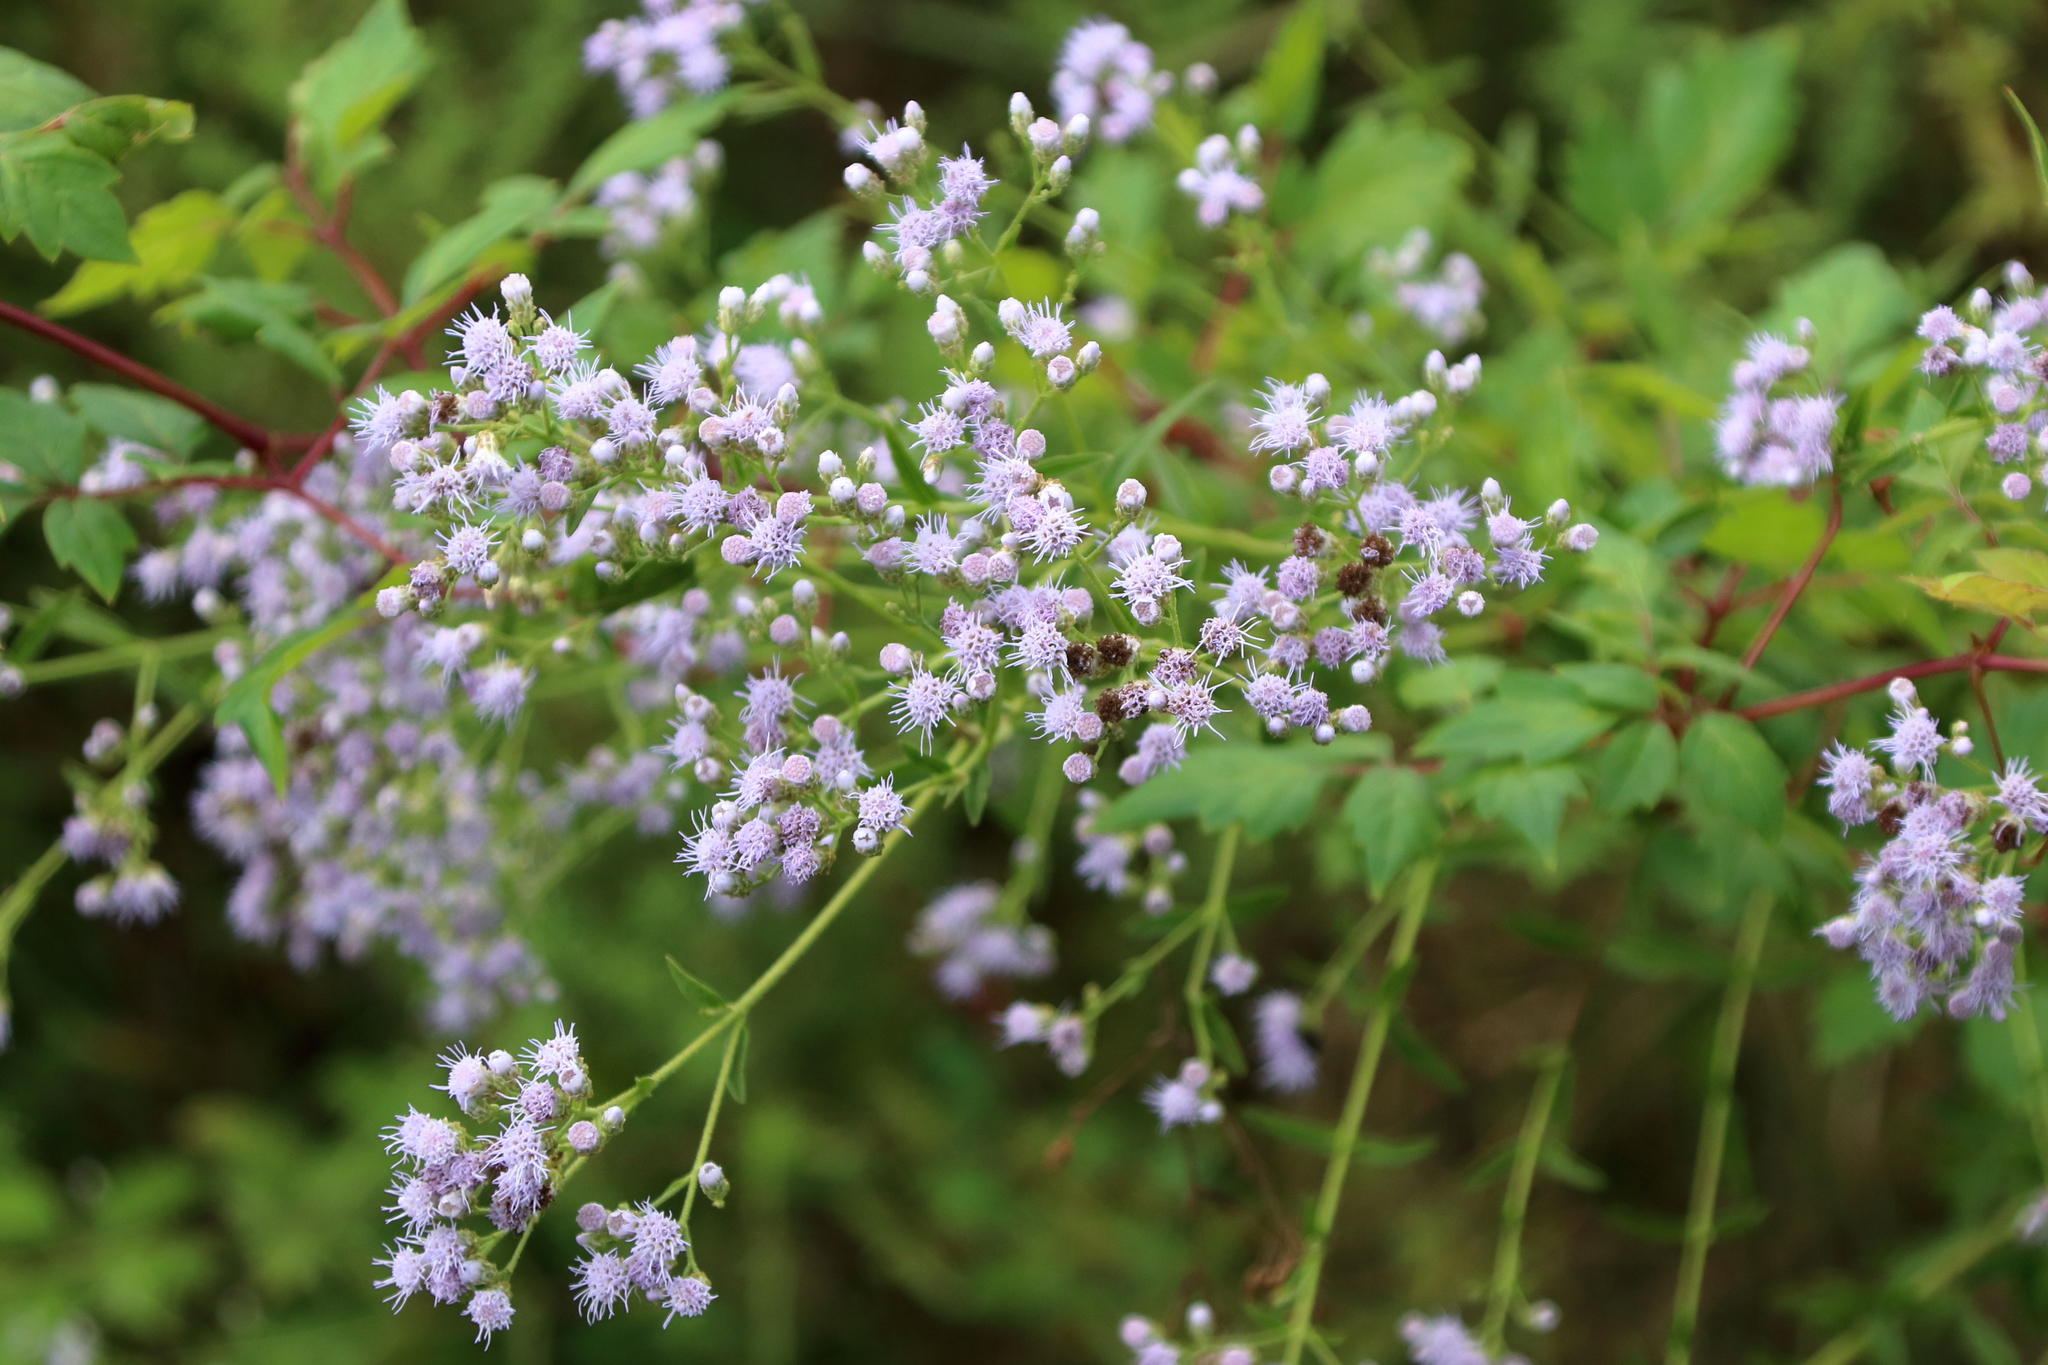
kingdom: Plantae
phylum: Tracheophyta
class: Magnoliopsida
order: Asterales
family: Asteraceae
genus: Chromolaena
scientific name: Chromolaena ivifolia
